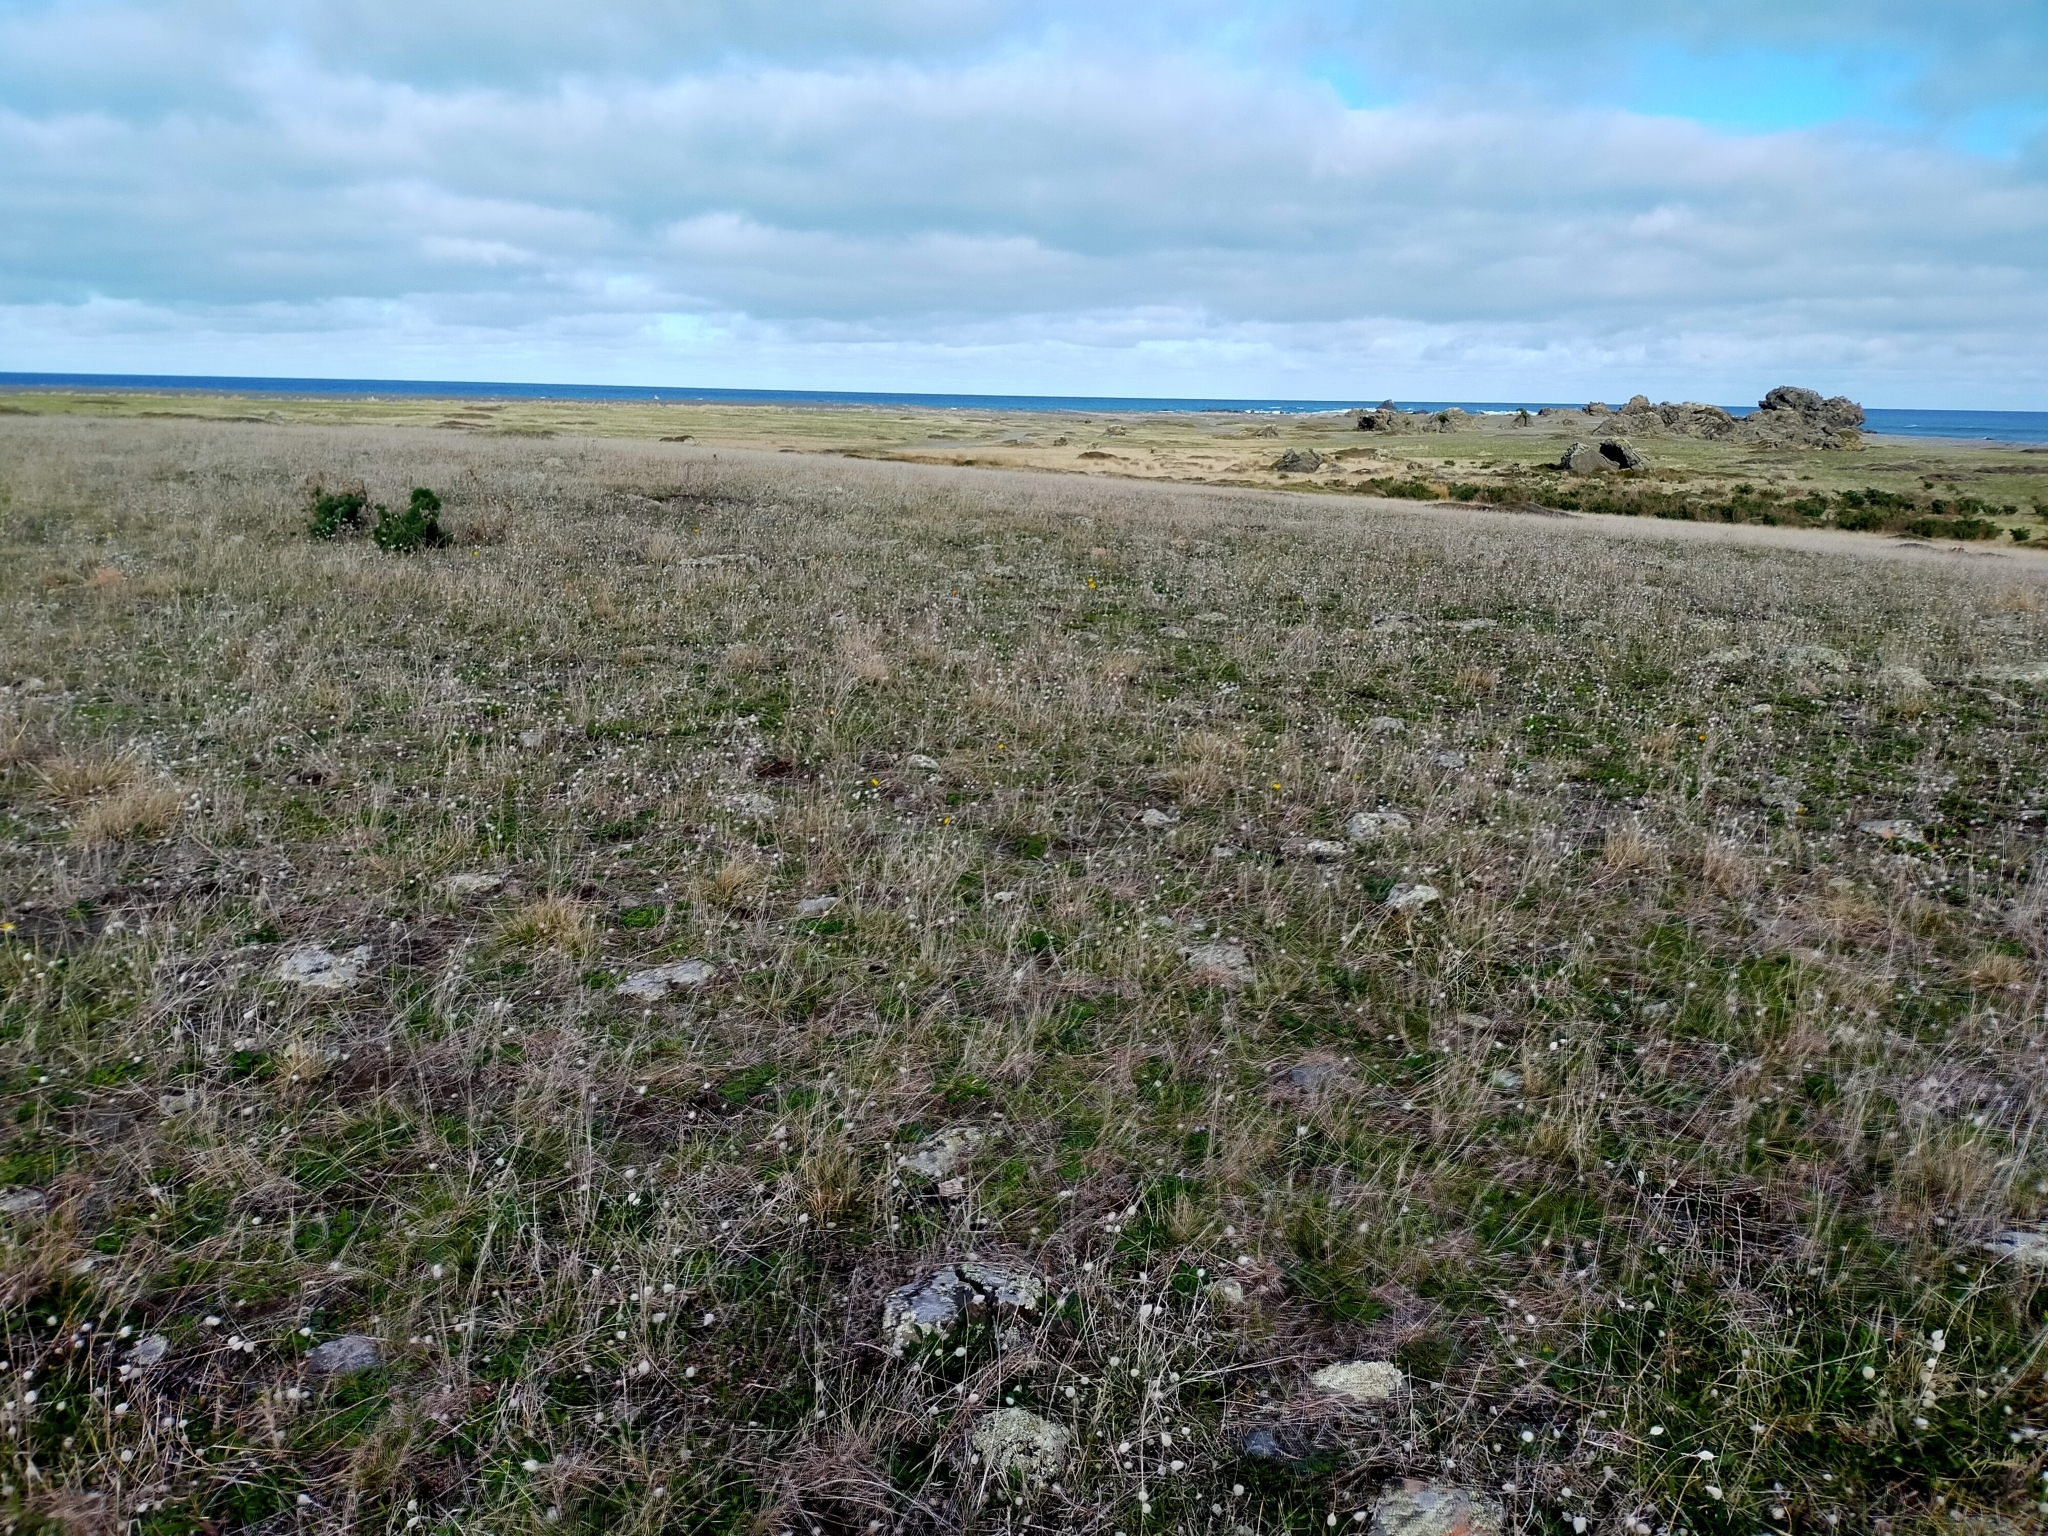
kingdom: Plantae
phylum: Tracheophyta
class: Magnoliopsida
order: Caryophyllales
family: Polygonaceae
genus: Muehlenbeckia
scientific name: Muehlenbeckia ephedroides
